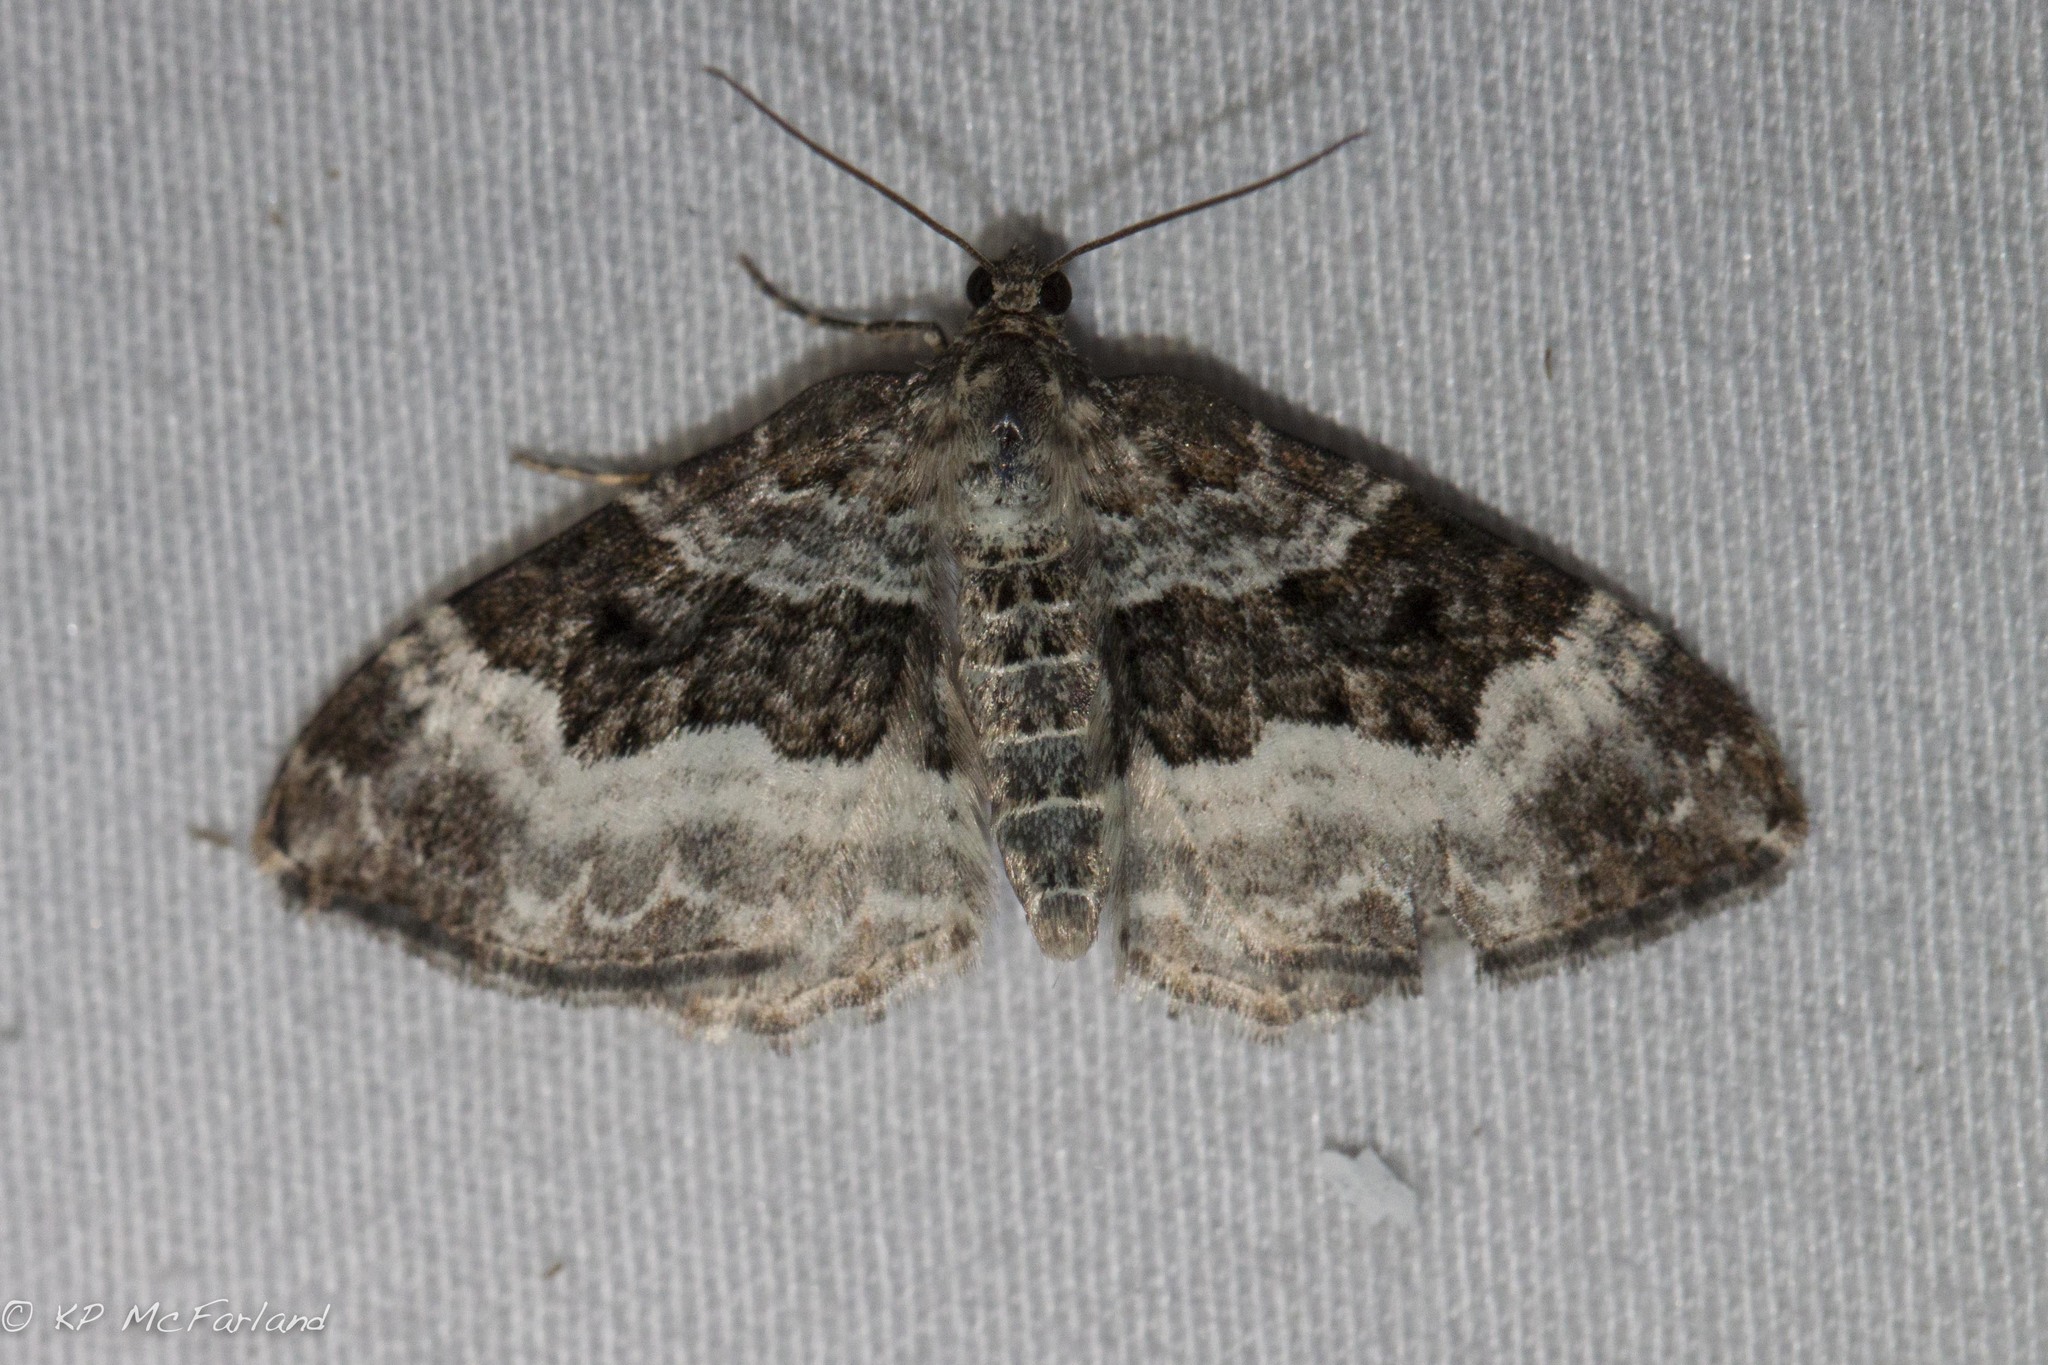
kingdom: Animalia
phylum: Arthropoda
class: Insecta
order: Lepidoptera
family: Geometridae
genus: Epirrhoe
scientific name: Epirrhoe alternata
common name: Common carpet
